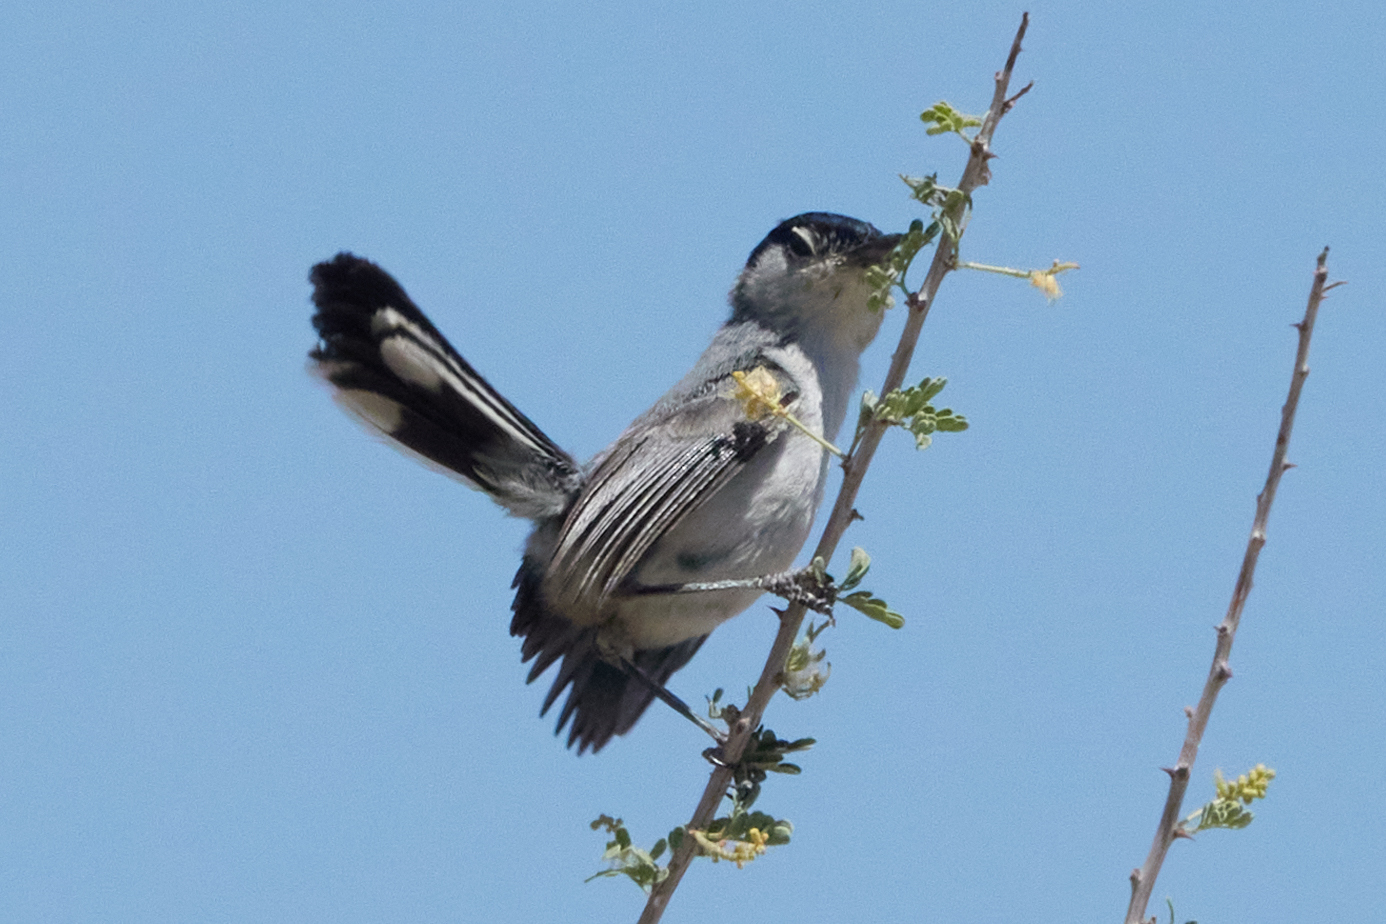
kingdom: Animalia
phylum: Chordata
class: Aves
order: Passeriformes
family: Polioptilidae
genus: Polioptila
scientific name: Polioptila melanura
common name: Black-tailed gnatcatcher
